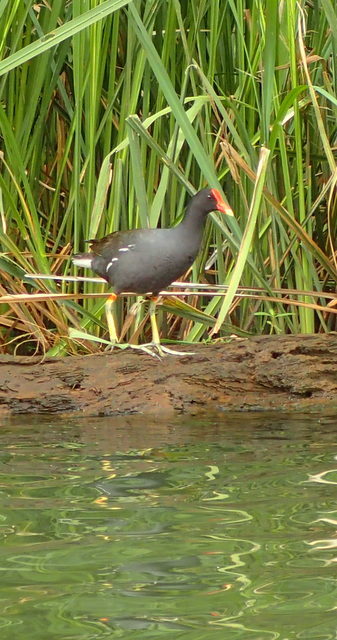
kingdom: Animalia
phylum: Chordata
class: Aves
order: Gruiformes
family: Rallidae
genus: Gallinula
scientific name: Gallinula chloropus
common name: Common moorhen
